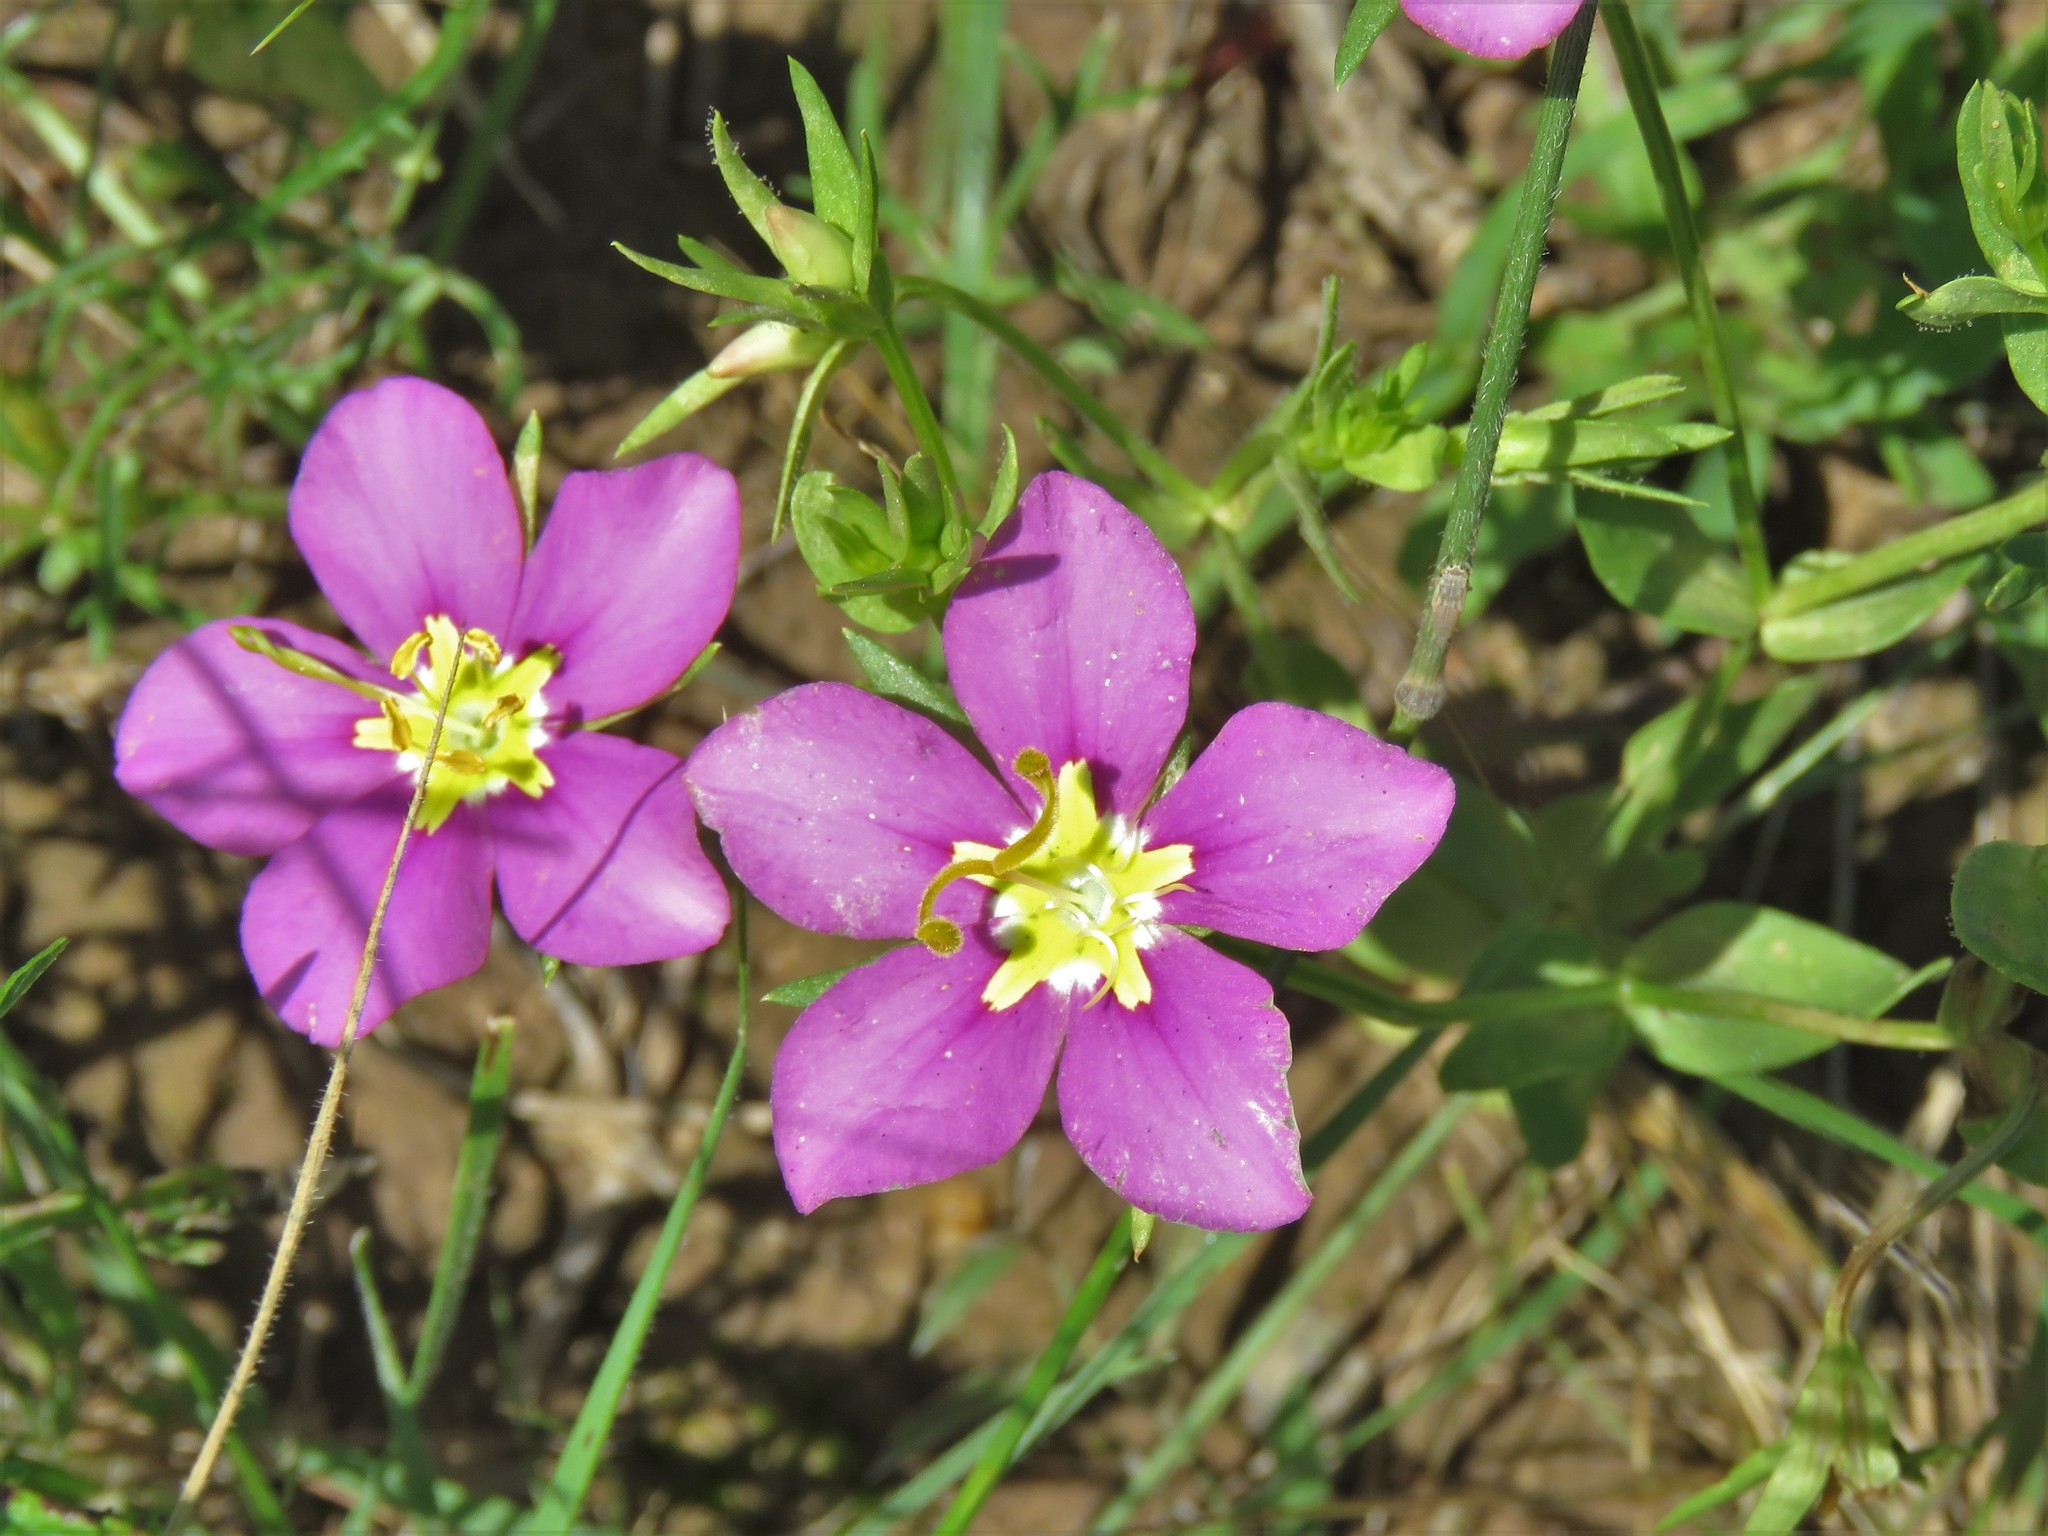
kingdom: Plantae
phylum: Tracheophyta
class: Magnoliopsida
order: Gentianales
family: Gentianaceae
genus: Sabatia
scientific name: Sabatia campestris
